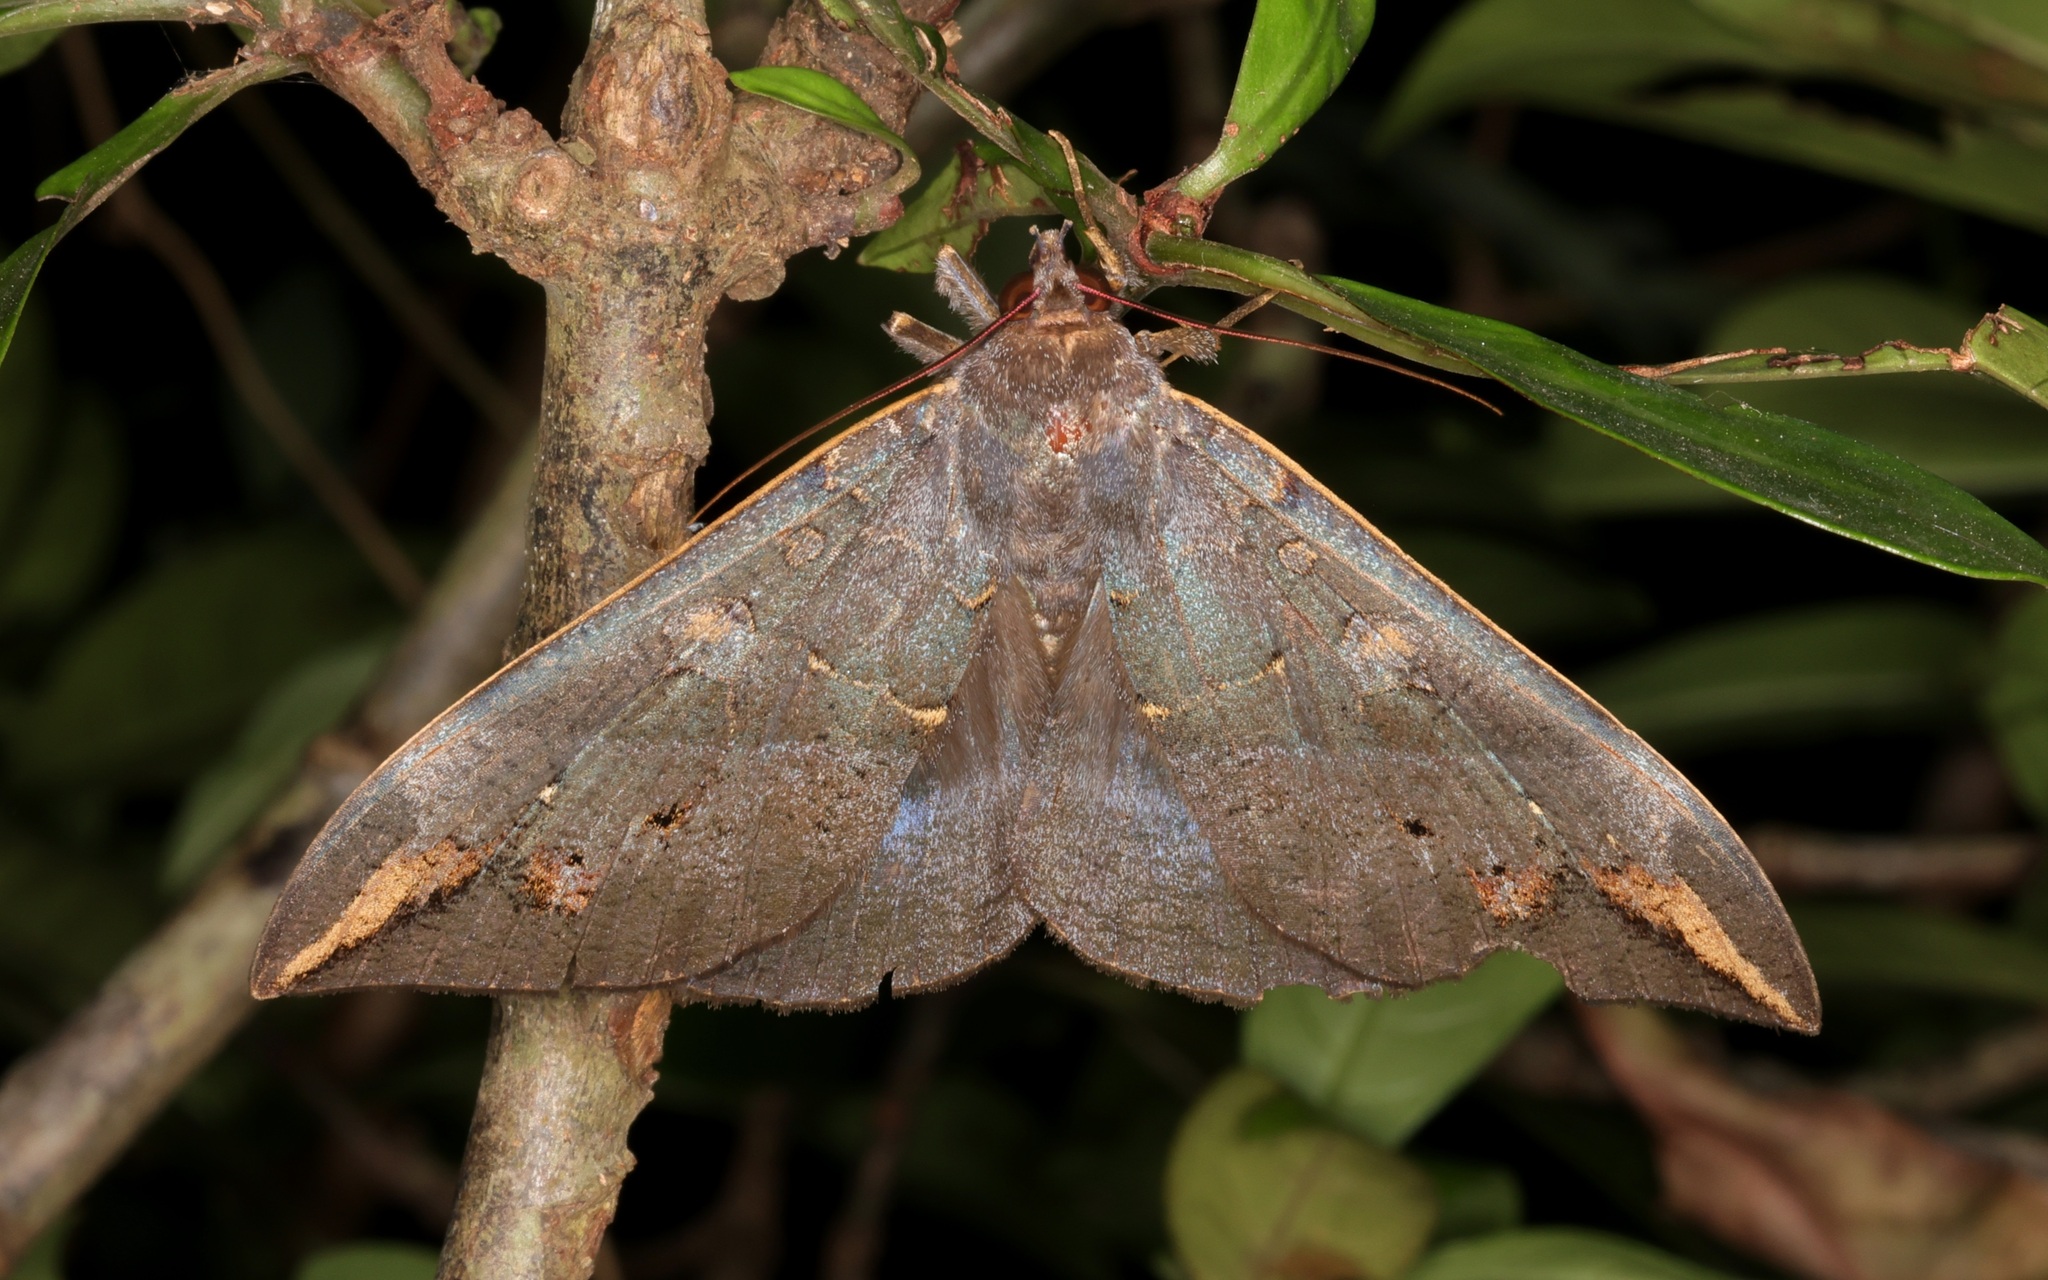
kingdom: Animalia
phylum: Arthropoda
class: Insecta
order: Lepidoptera
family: Erebidae
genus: Ischyja
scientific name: Ischyja ferrifracta
